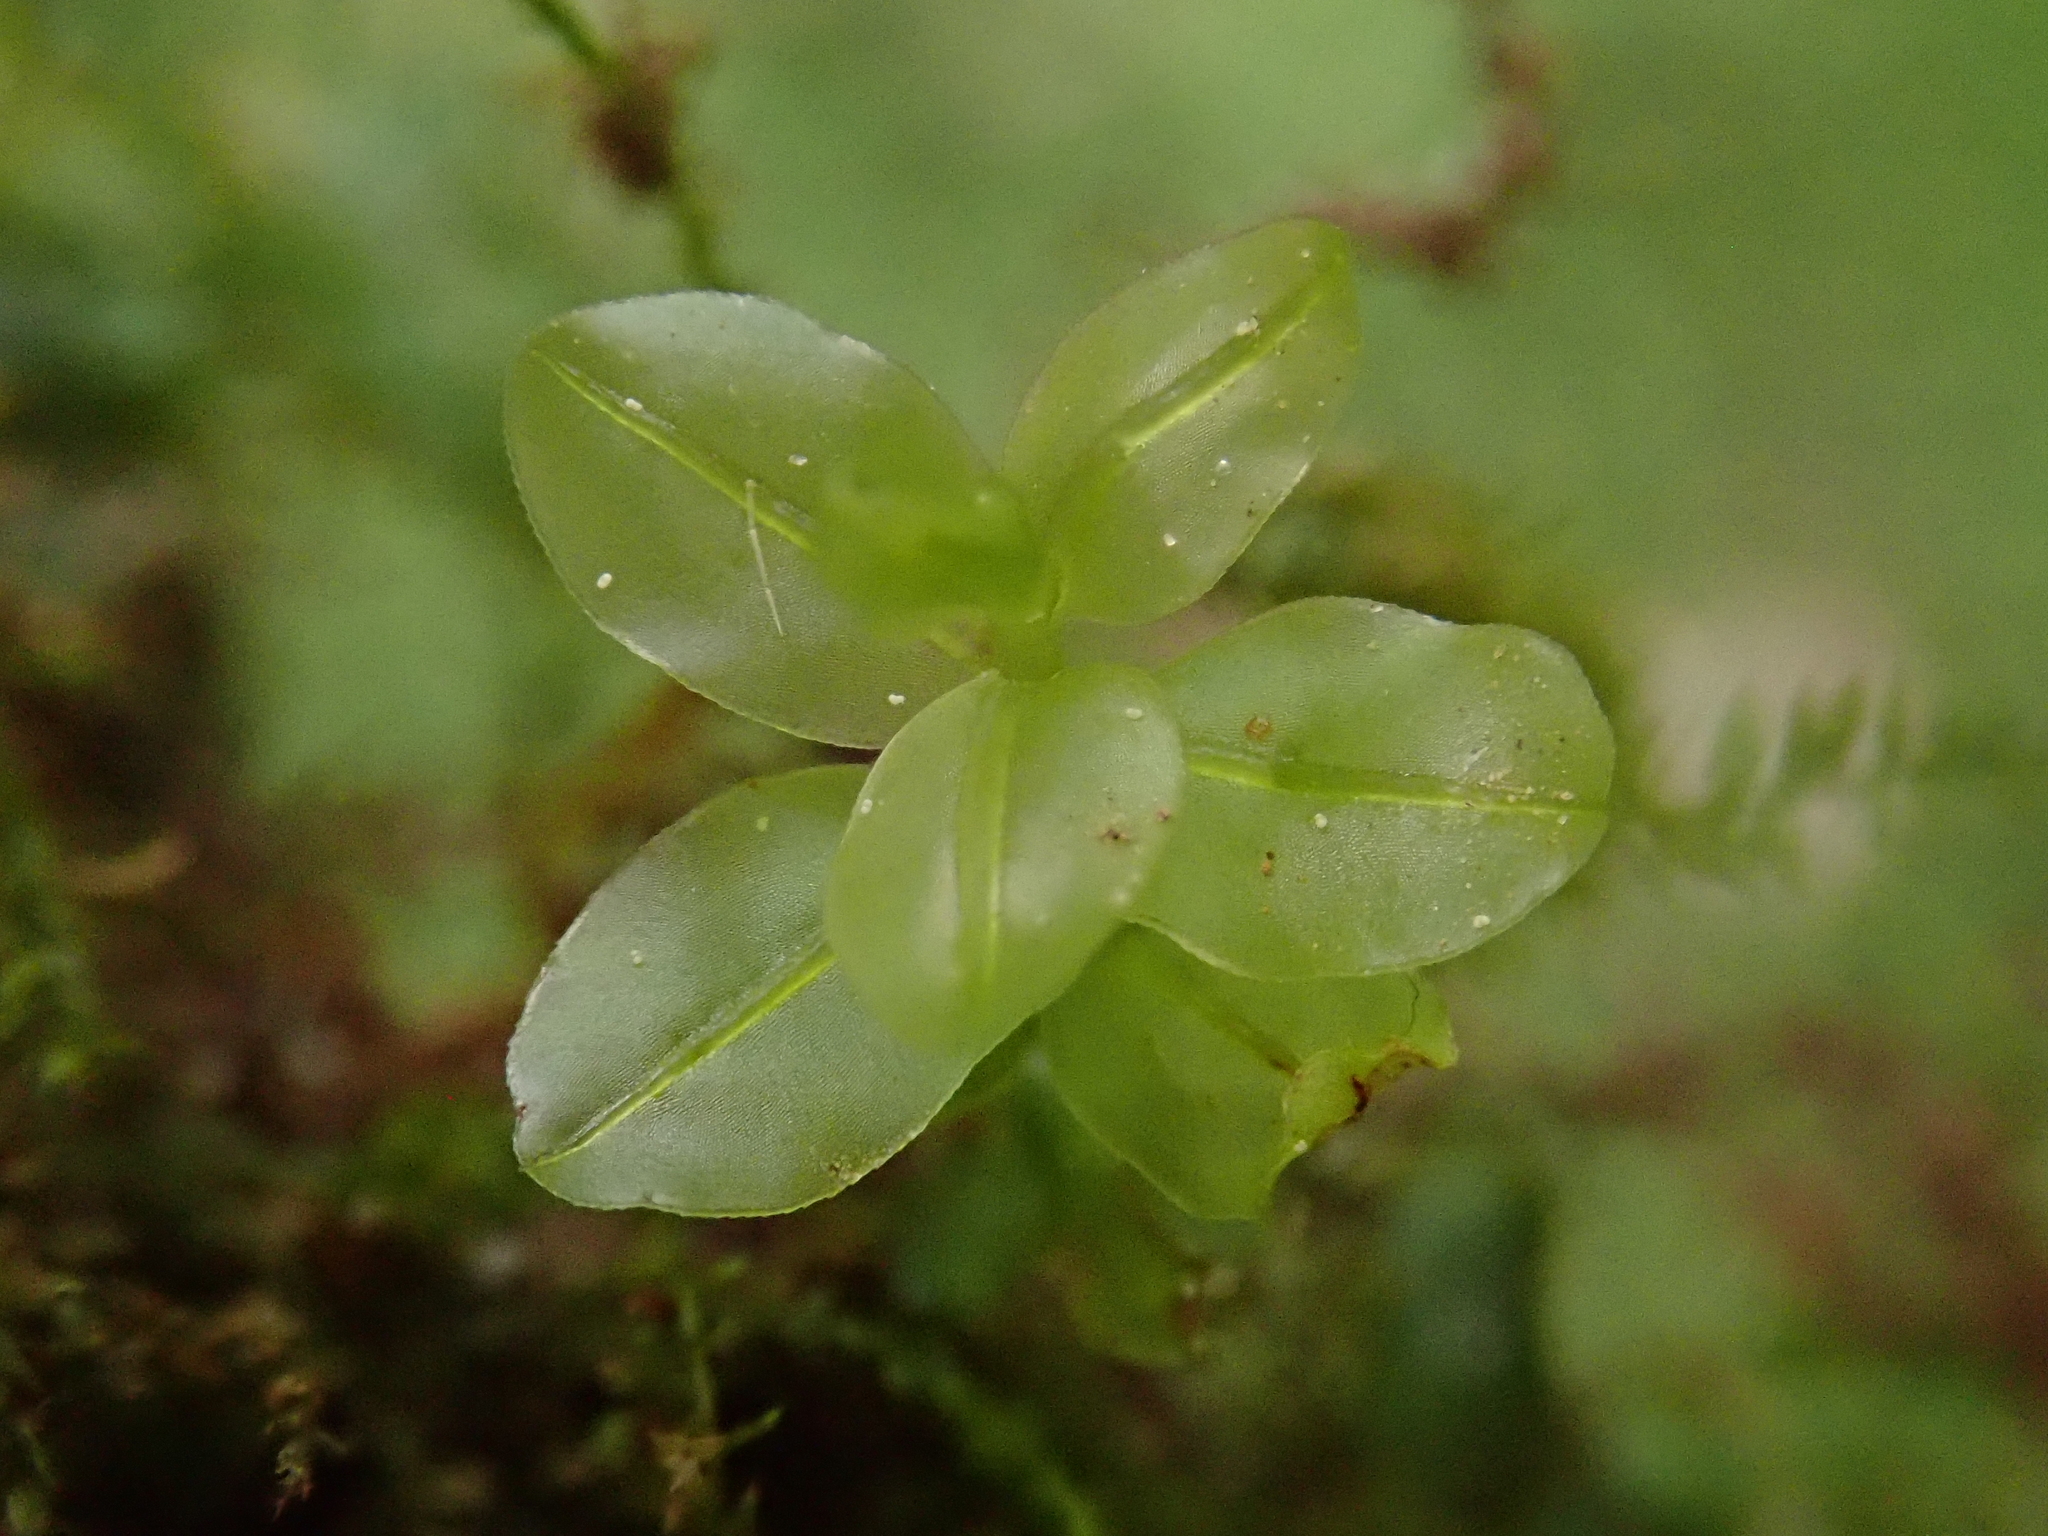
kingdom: Plantae
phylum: Bryophyta
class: Bryopsida
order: Bryales
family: Mniaceae
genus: Plagiomnium
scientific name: Plagiomnium rostratum
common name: Long-beaked leafy moss
